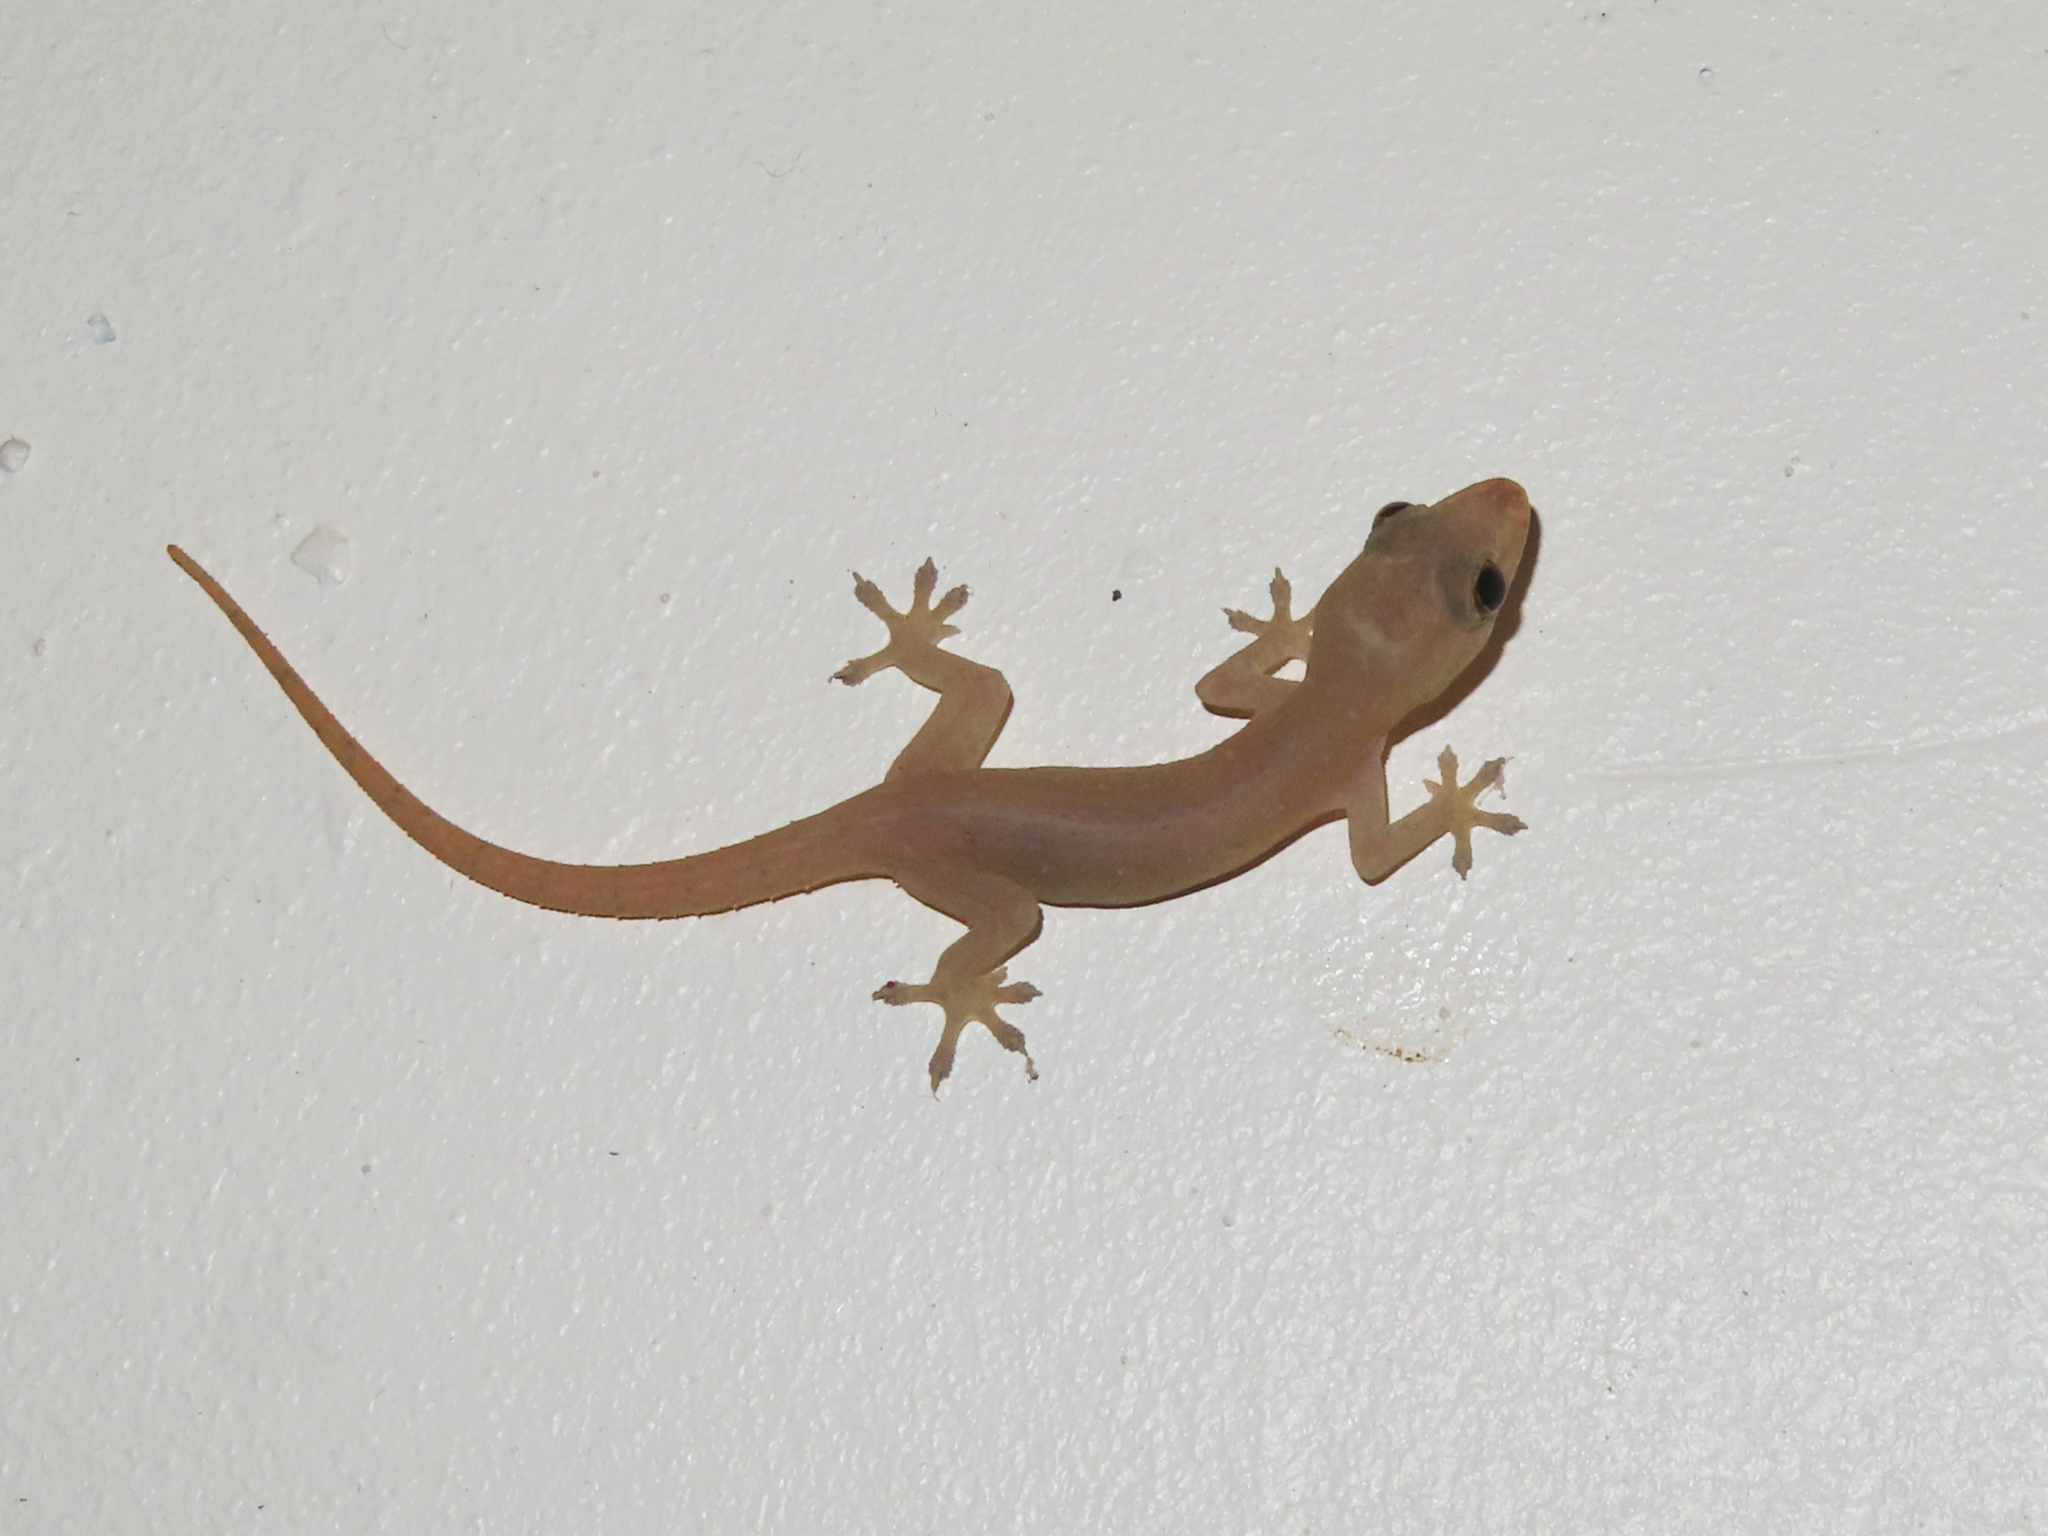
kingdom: Animalia
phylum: Chordata
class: Squamata
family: Gekkonidae
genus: Hemidactylus
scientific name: Hemidactylus frenatus
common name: Common house gecko
